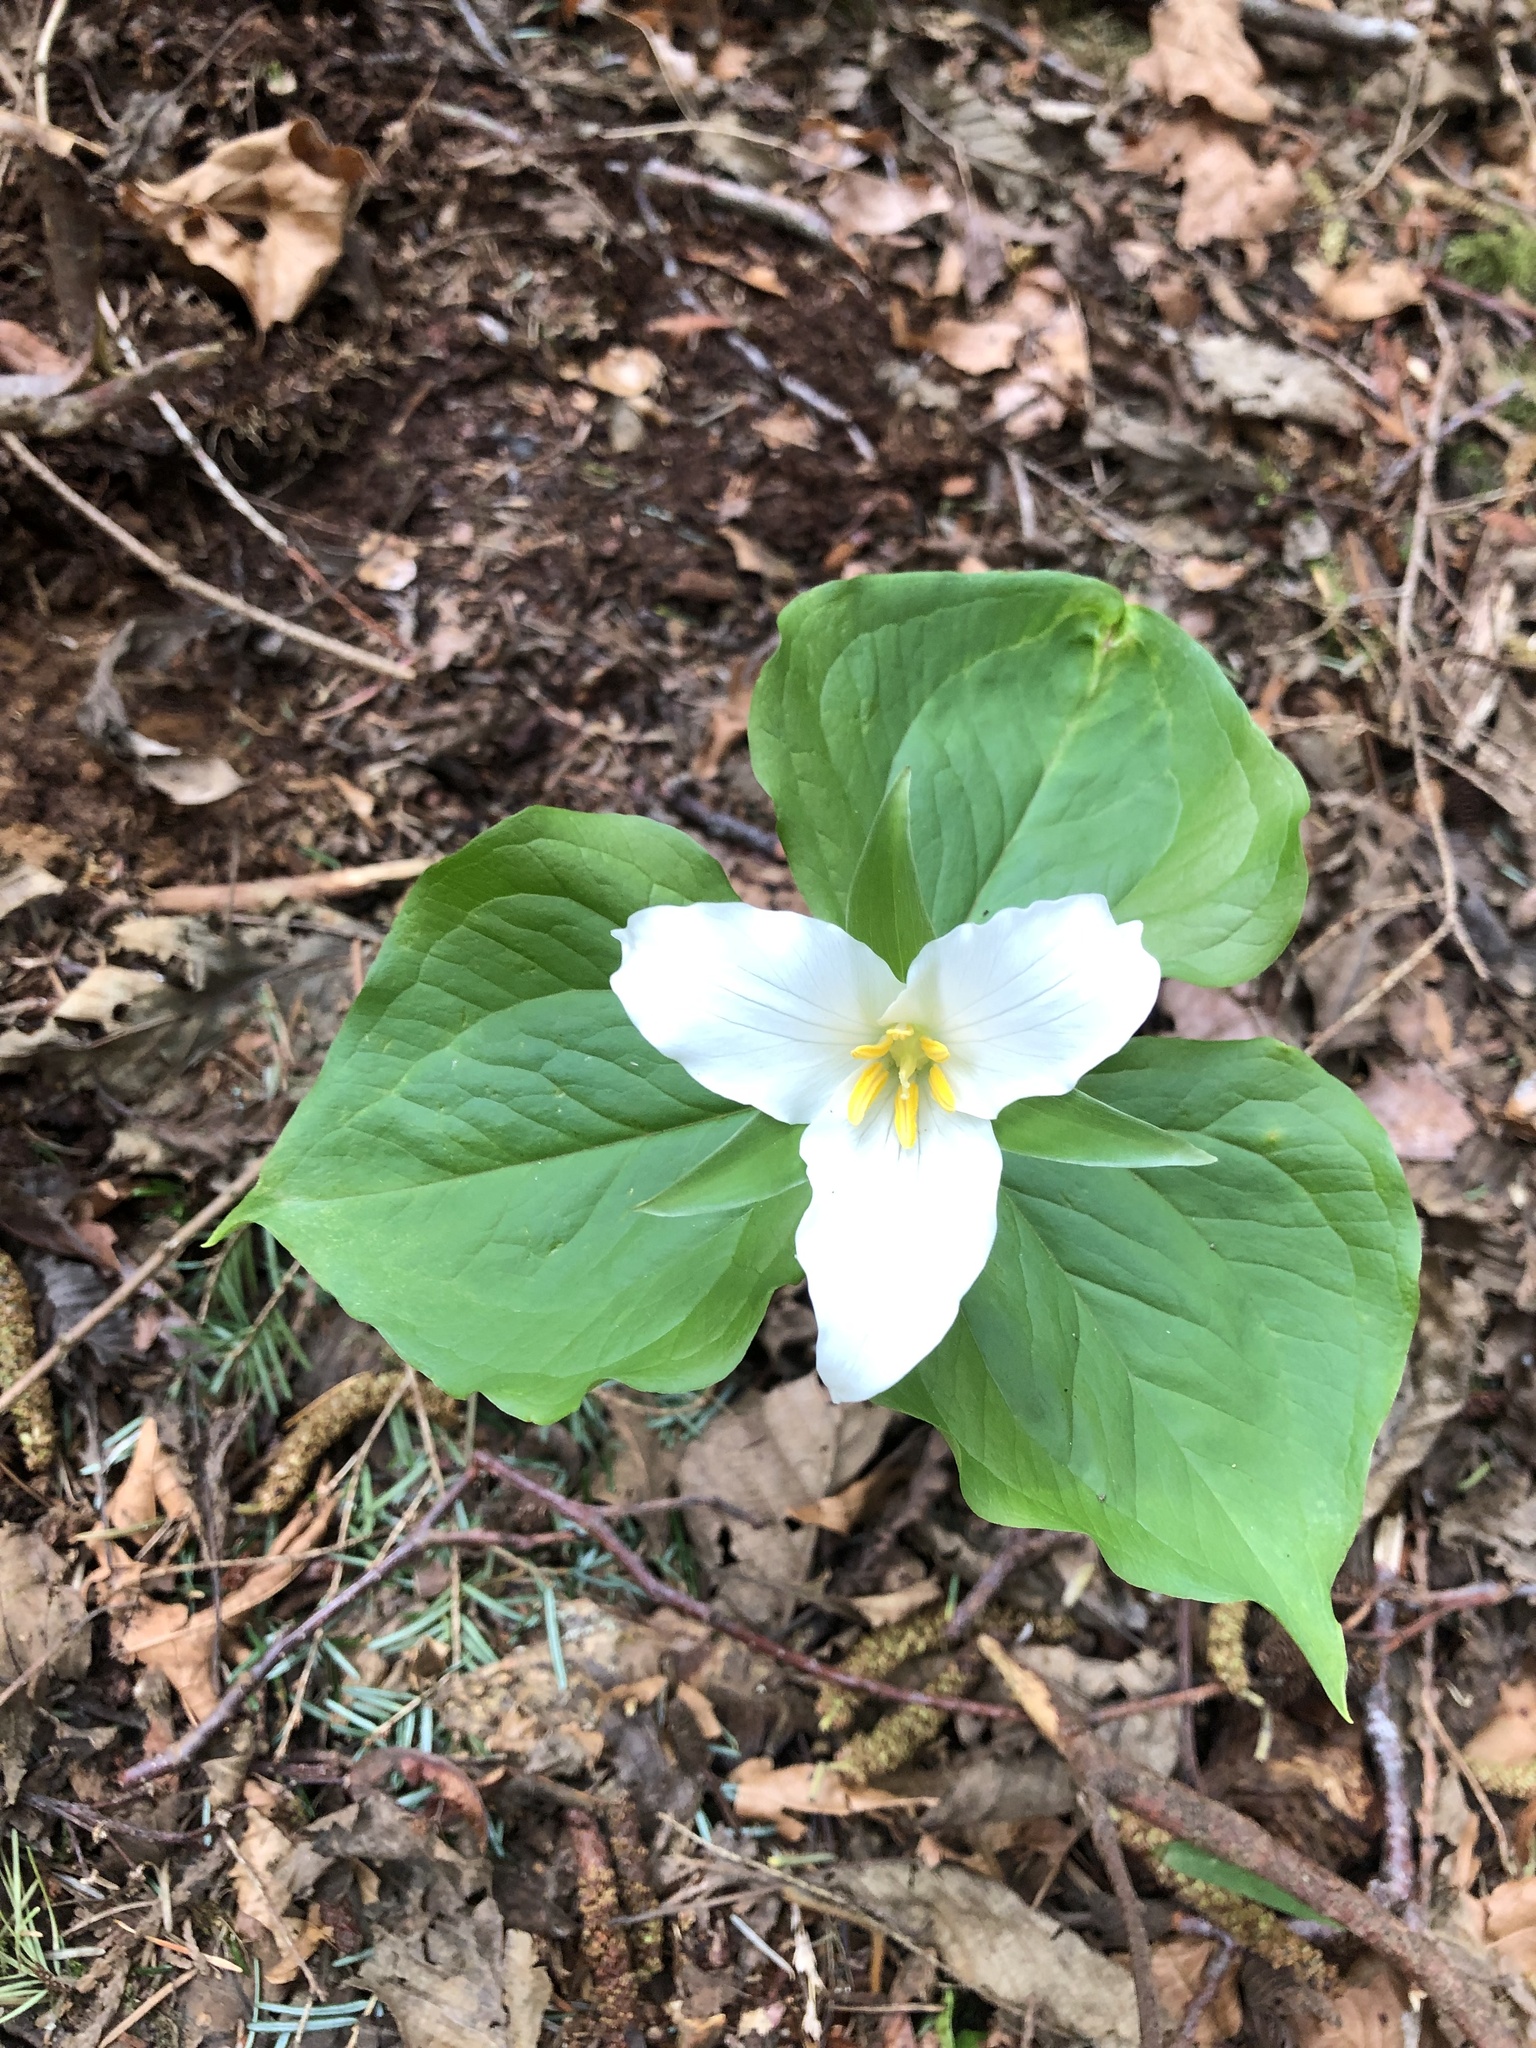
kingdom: Plantae
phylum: Tracheophyta
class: Liliopsida
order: Liliales
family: Melanthiaceae
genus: Trillium
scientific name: Trillium ovatum
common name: Pacific trillium
